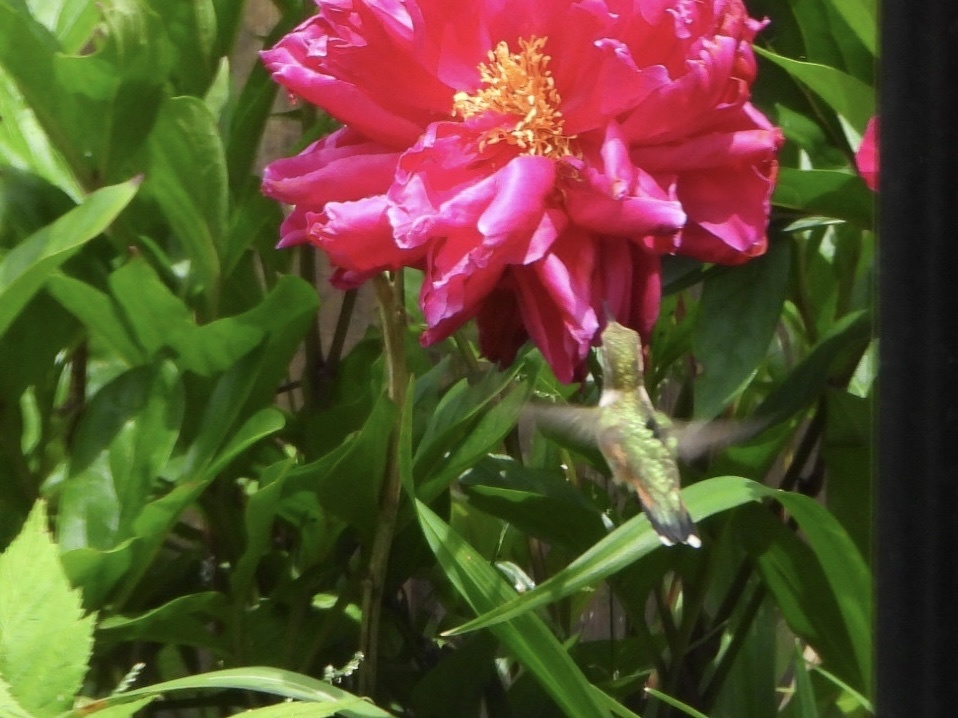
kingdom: Animalia
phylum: Chordata
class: Aves
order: Apodiformes
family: Trochilidae
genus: Selasphorus
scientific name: Selasphorus rufus
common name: Rufous hummingbird
